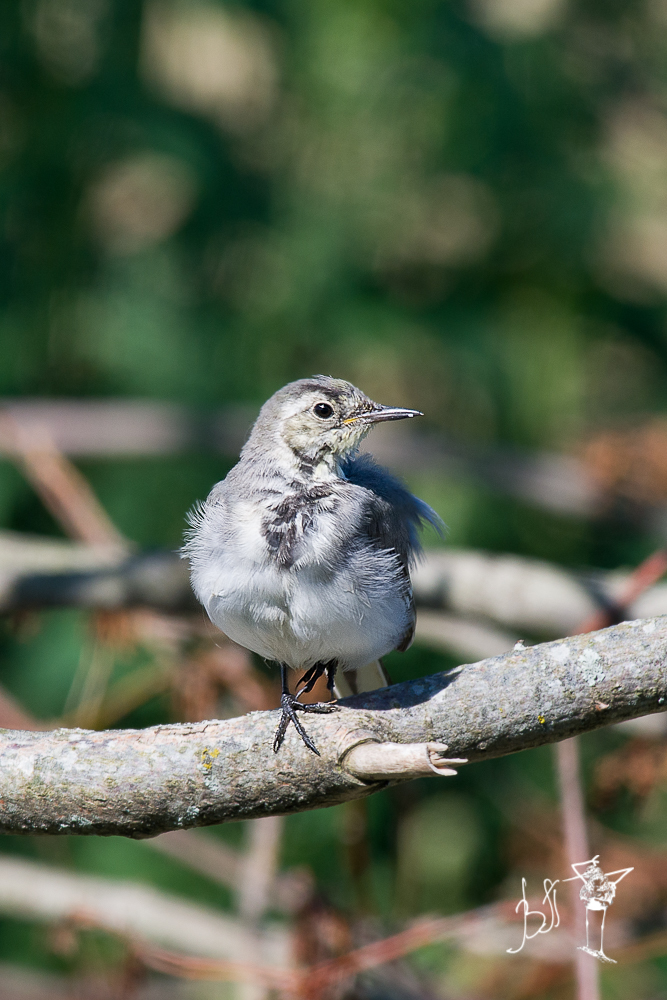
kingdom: Animalia
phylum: Chordata
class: Aves
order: Passeriformes
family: Motacillidae
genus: Motacilla
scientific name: Motacilla alba
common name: White wagtail
